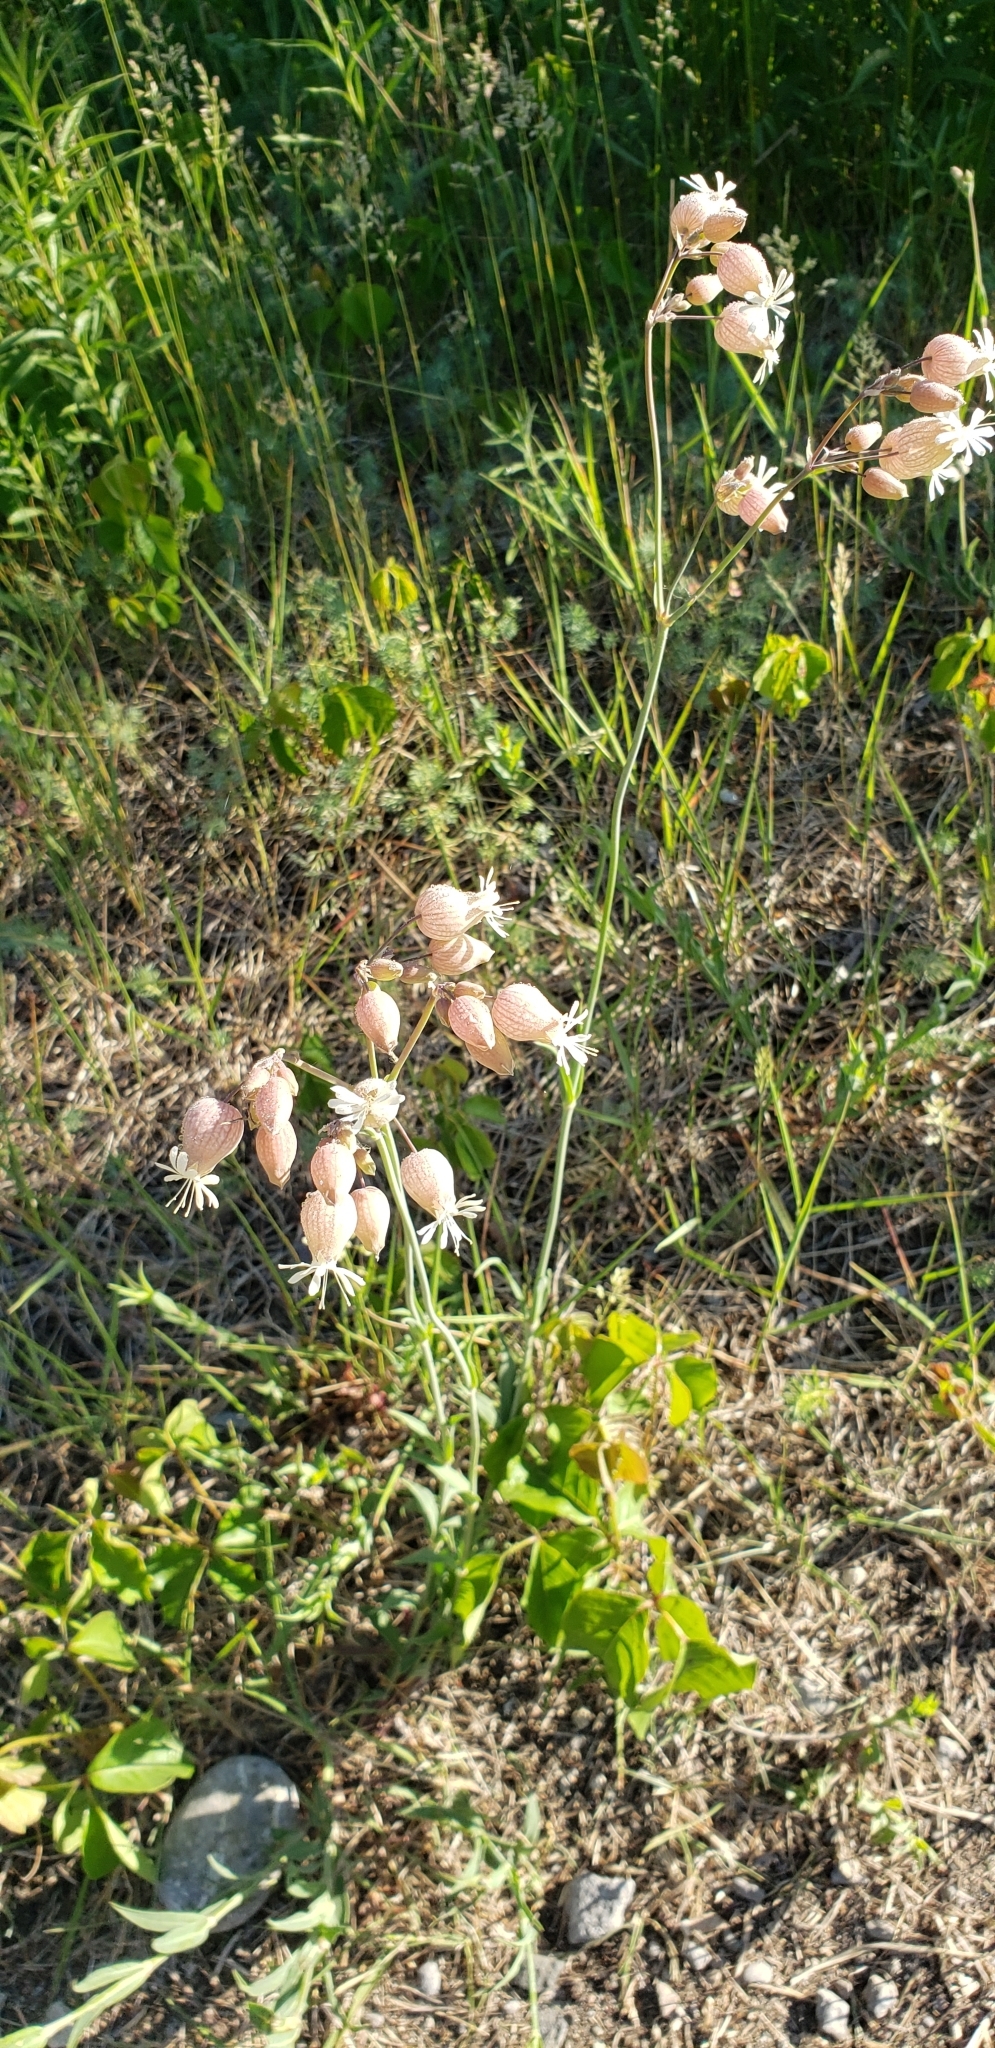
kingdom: Plantae
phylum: Tracheophyta
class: Magnoliopsida
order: Caryophyllales
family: Caryophyllaceae
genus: Silene
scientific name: Silene vulgaris
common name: Bladder campion
